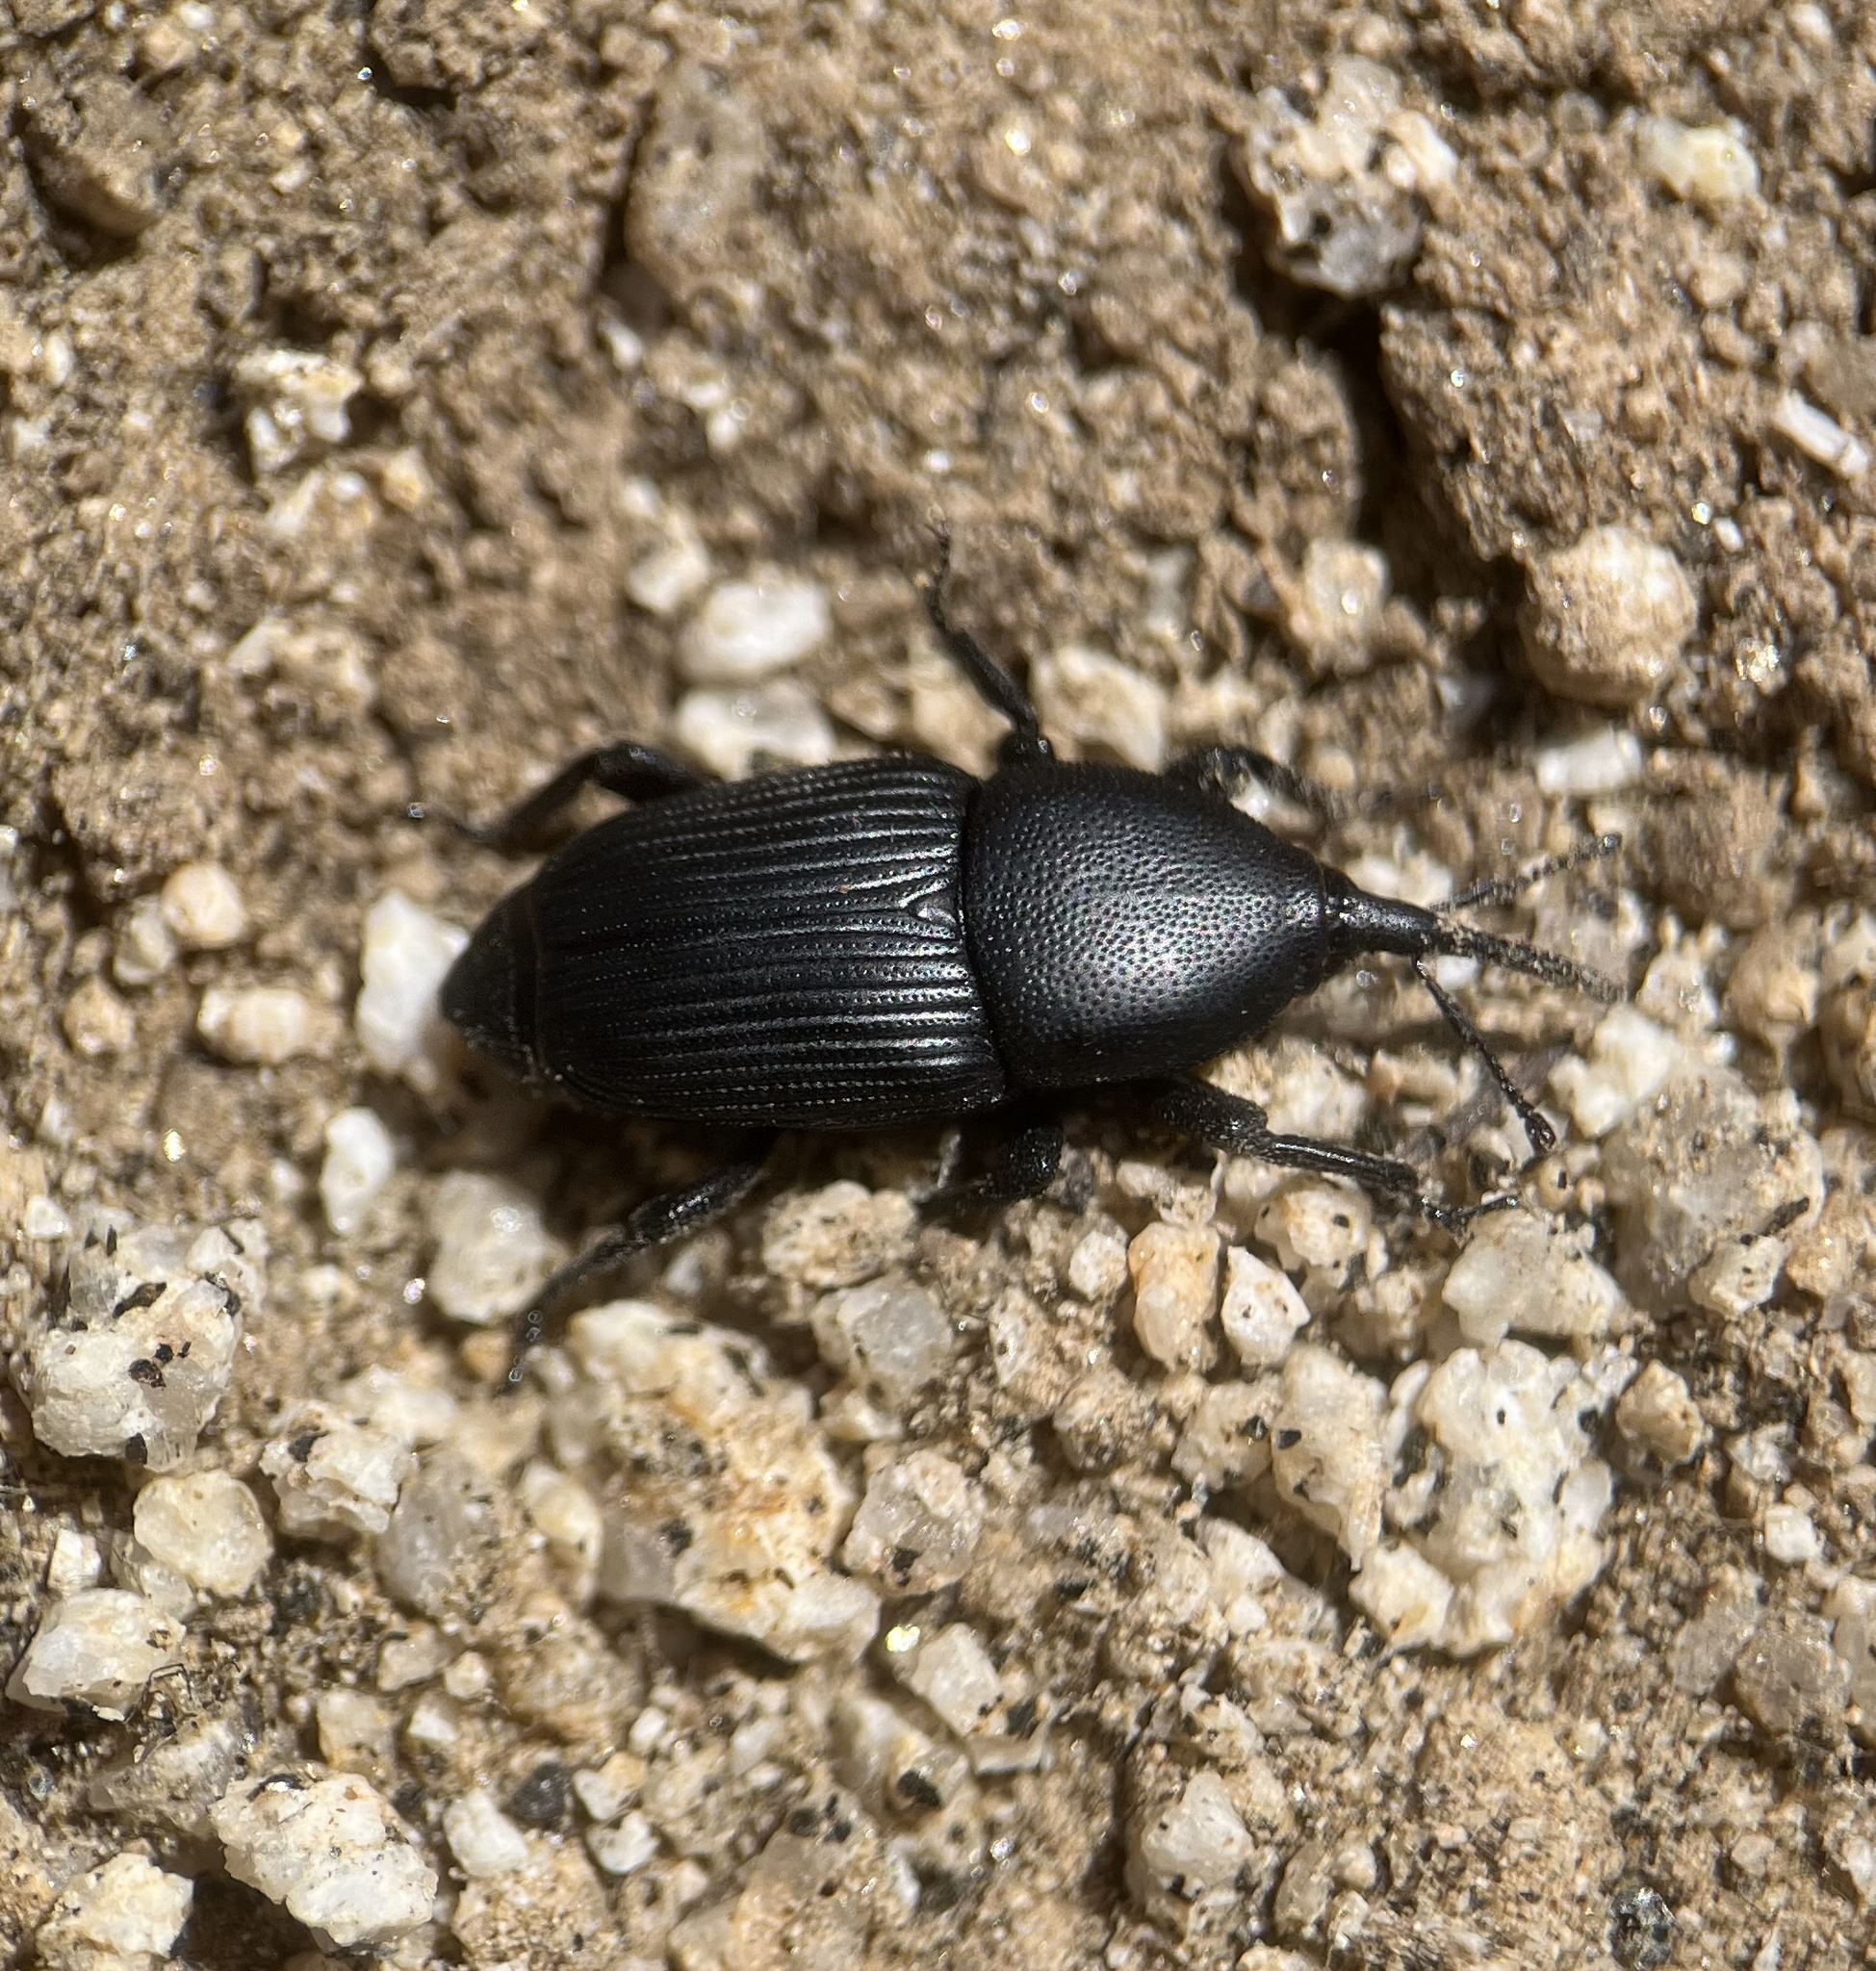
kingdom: Animalia
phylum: Arthropoda
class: Insecta
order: Coleoptera
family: Dryophthoridae
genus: Scyphophorus
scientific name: Scyphophorus yuccae
